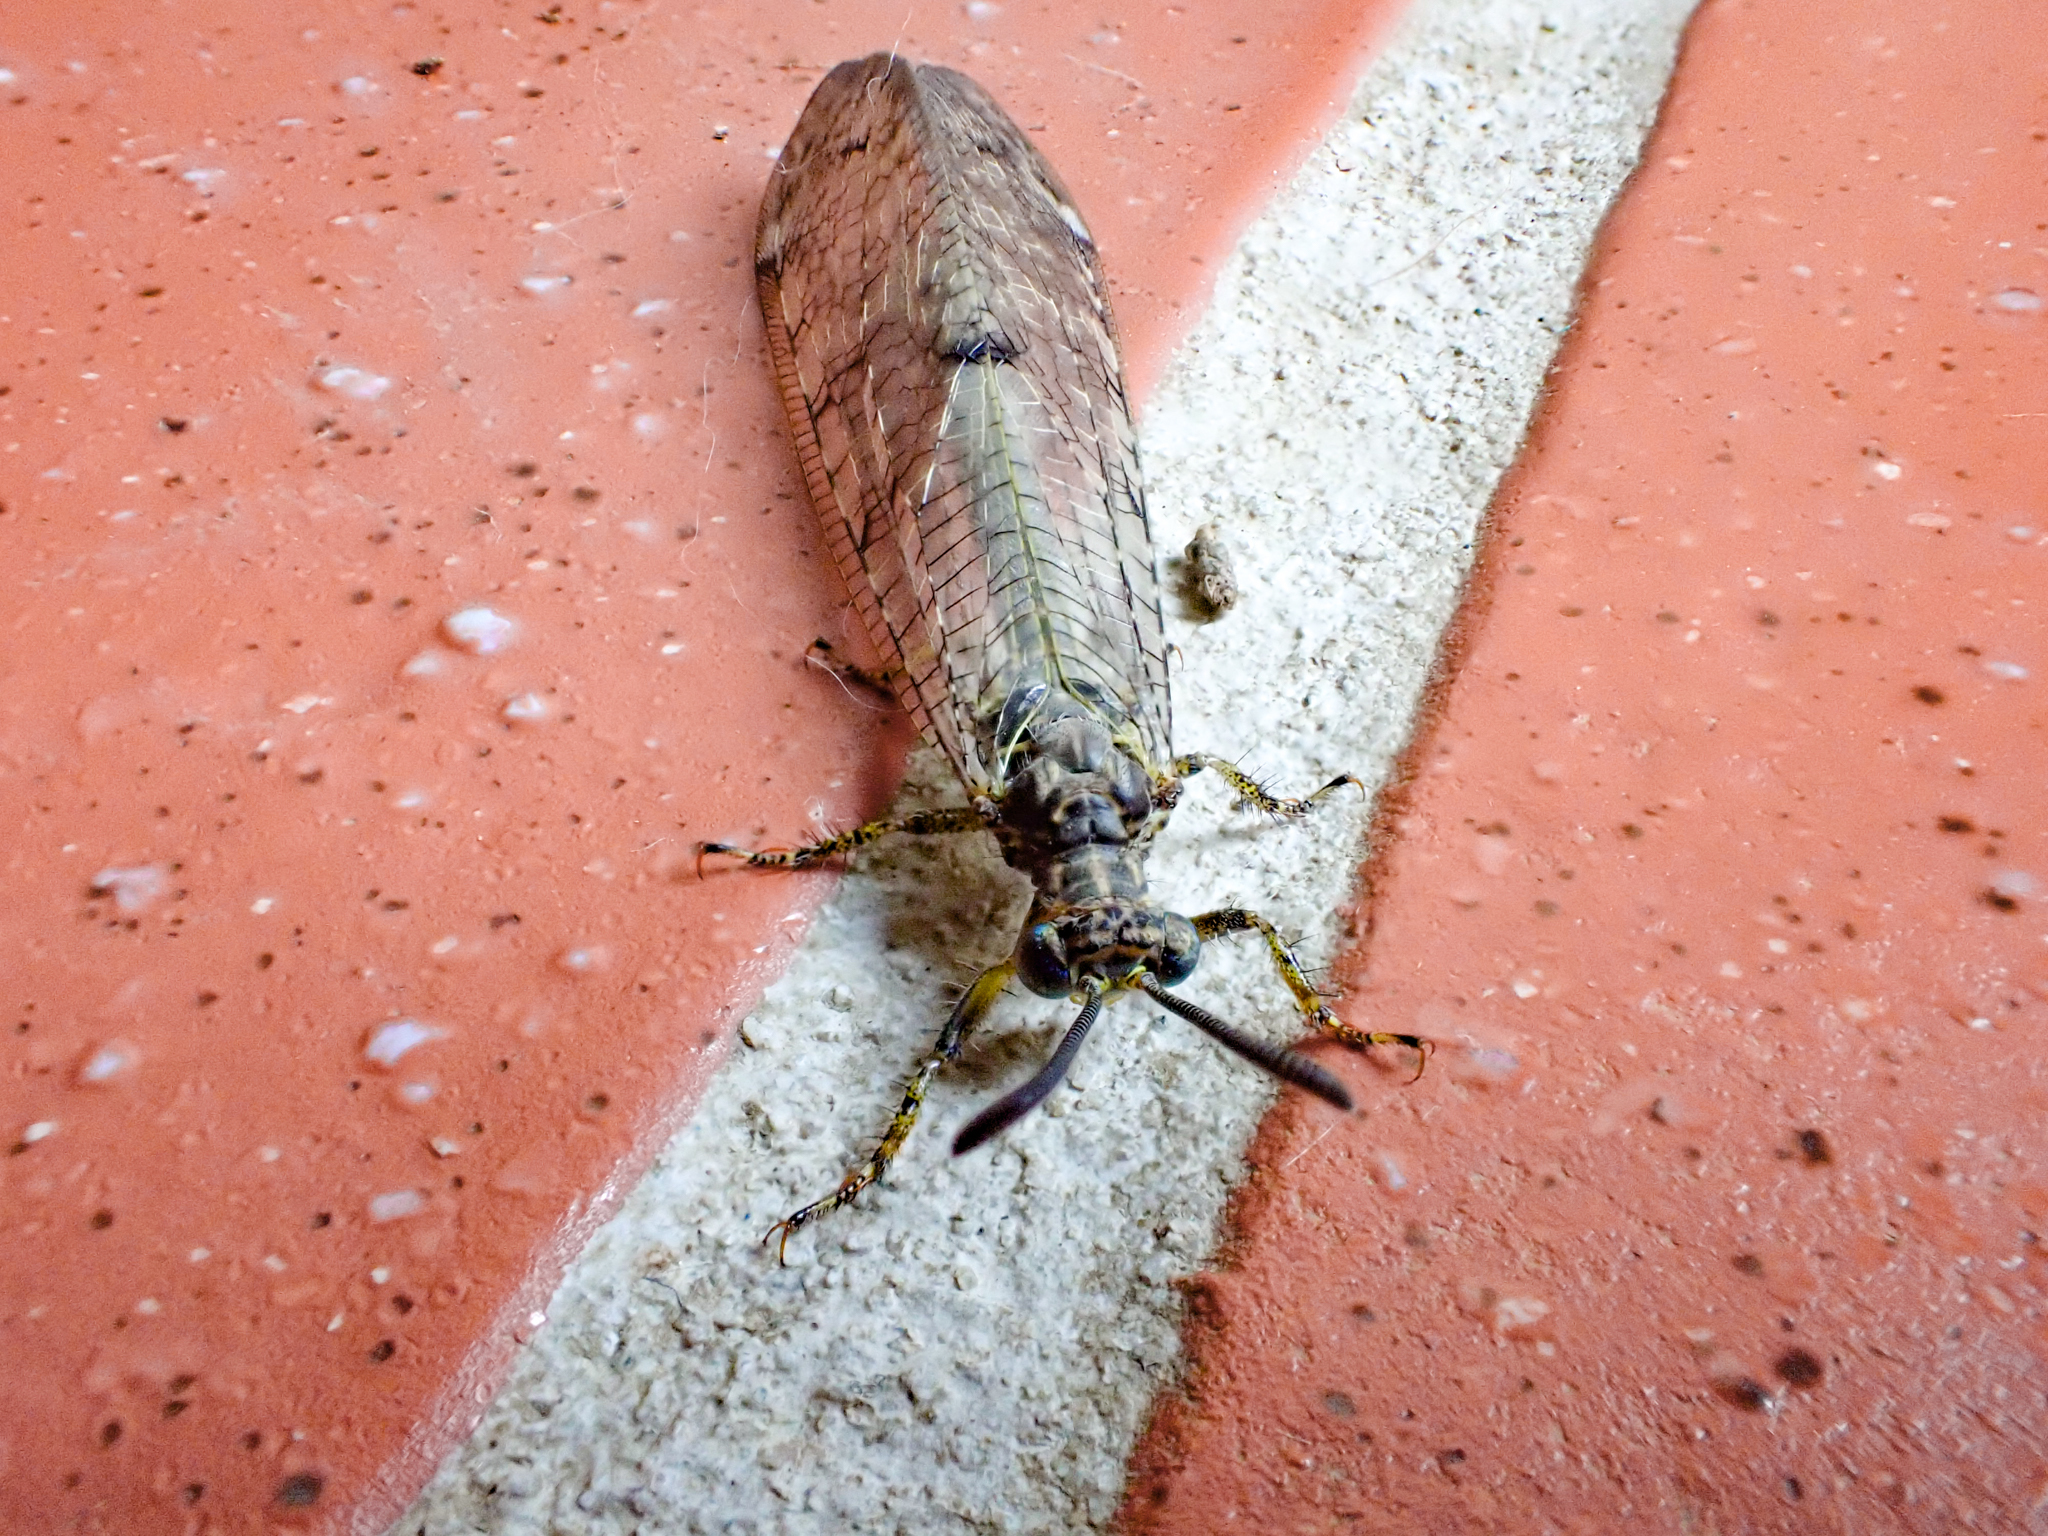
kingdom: Animalia
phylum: Arthropoda
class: Insecta
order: Neuroptera
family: Myrmeleontidae
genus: Distoleon
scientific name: Distoleon tetragrammicus
